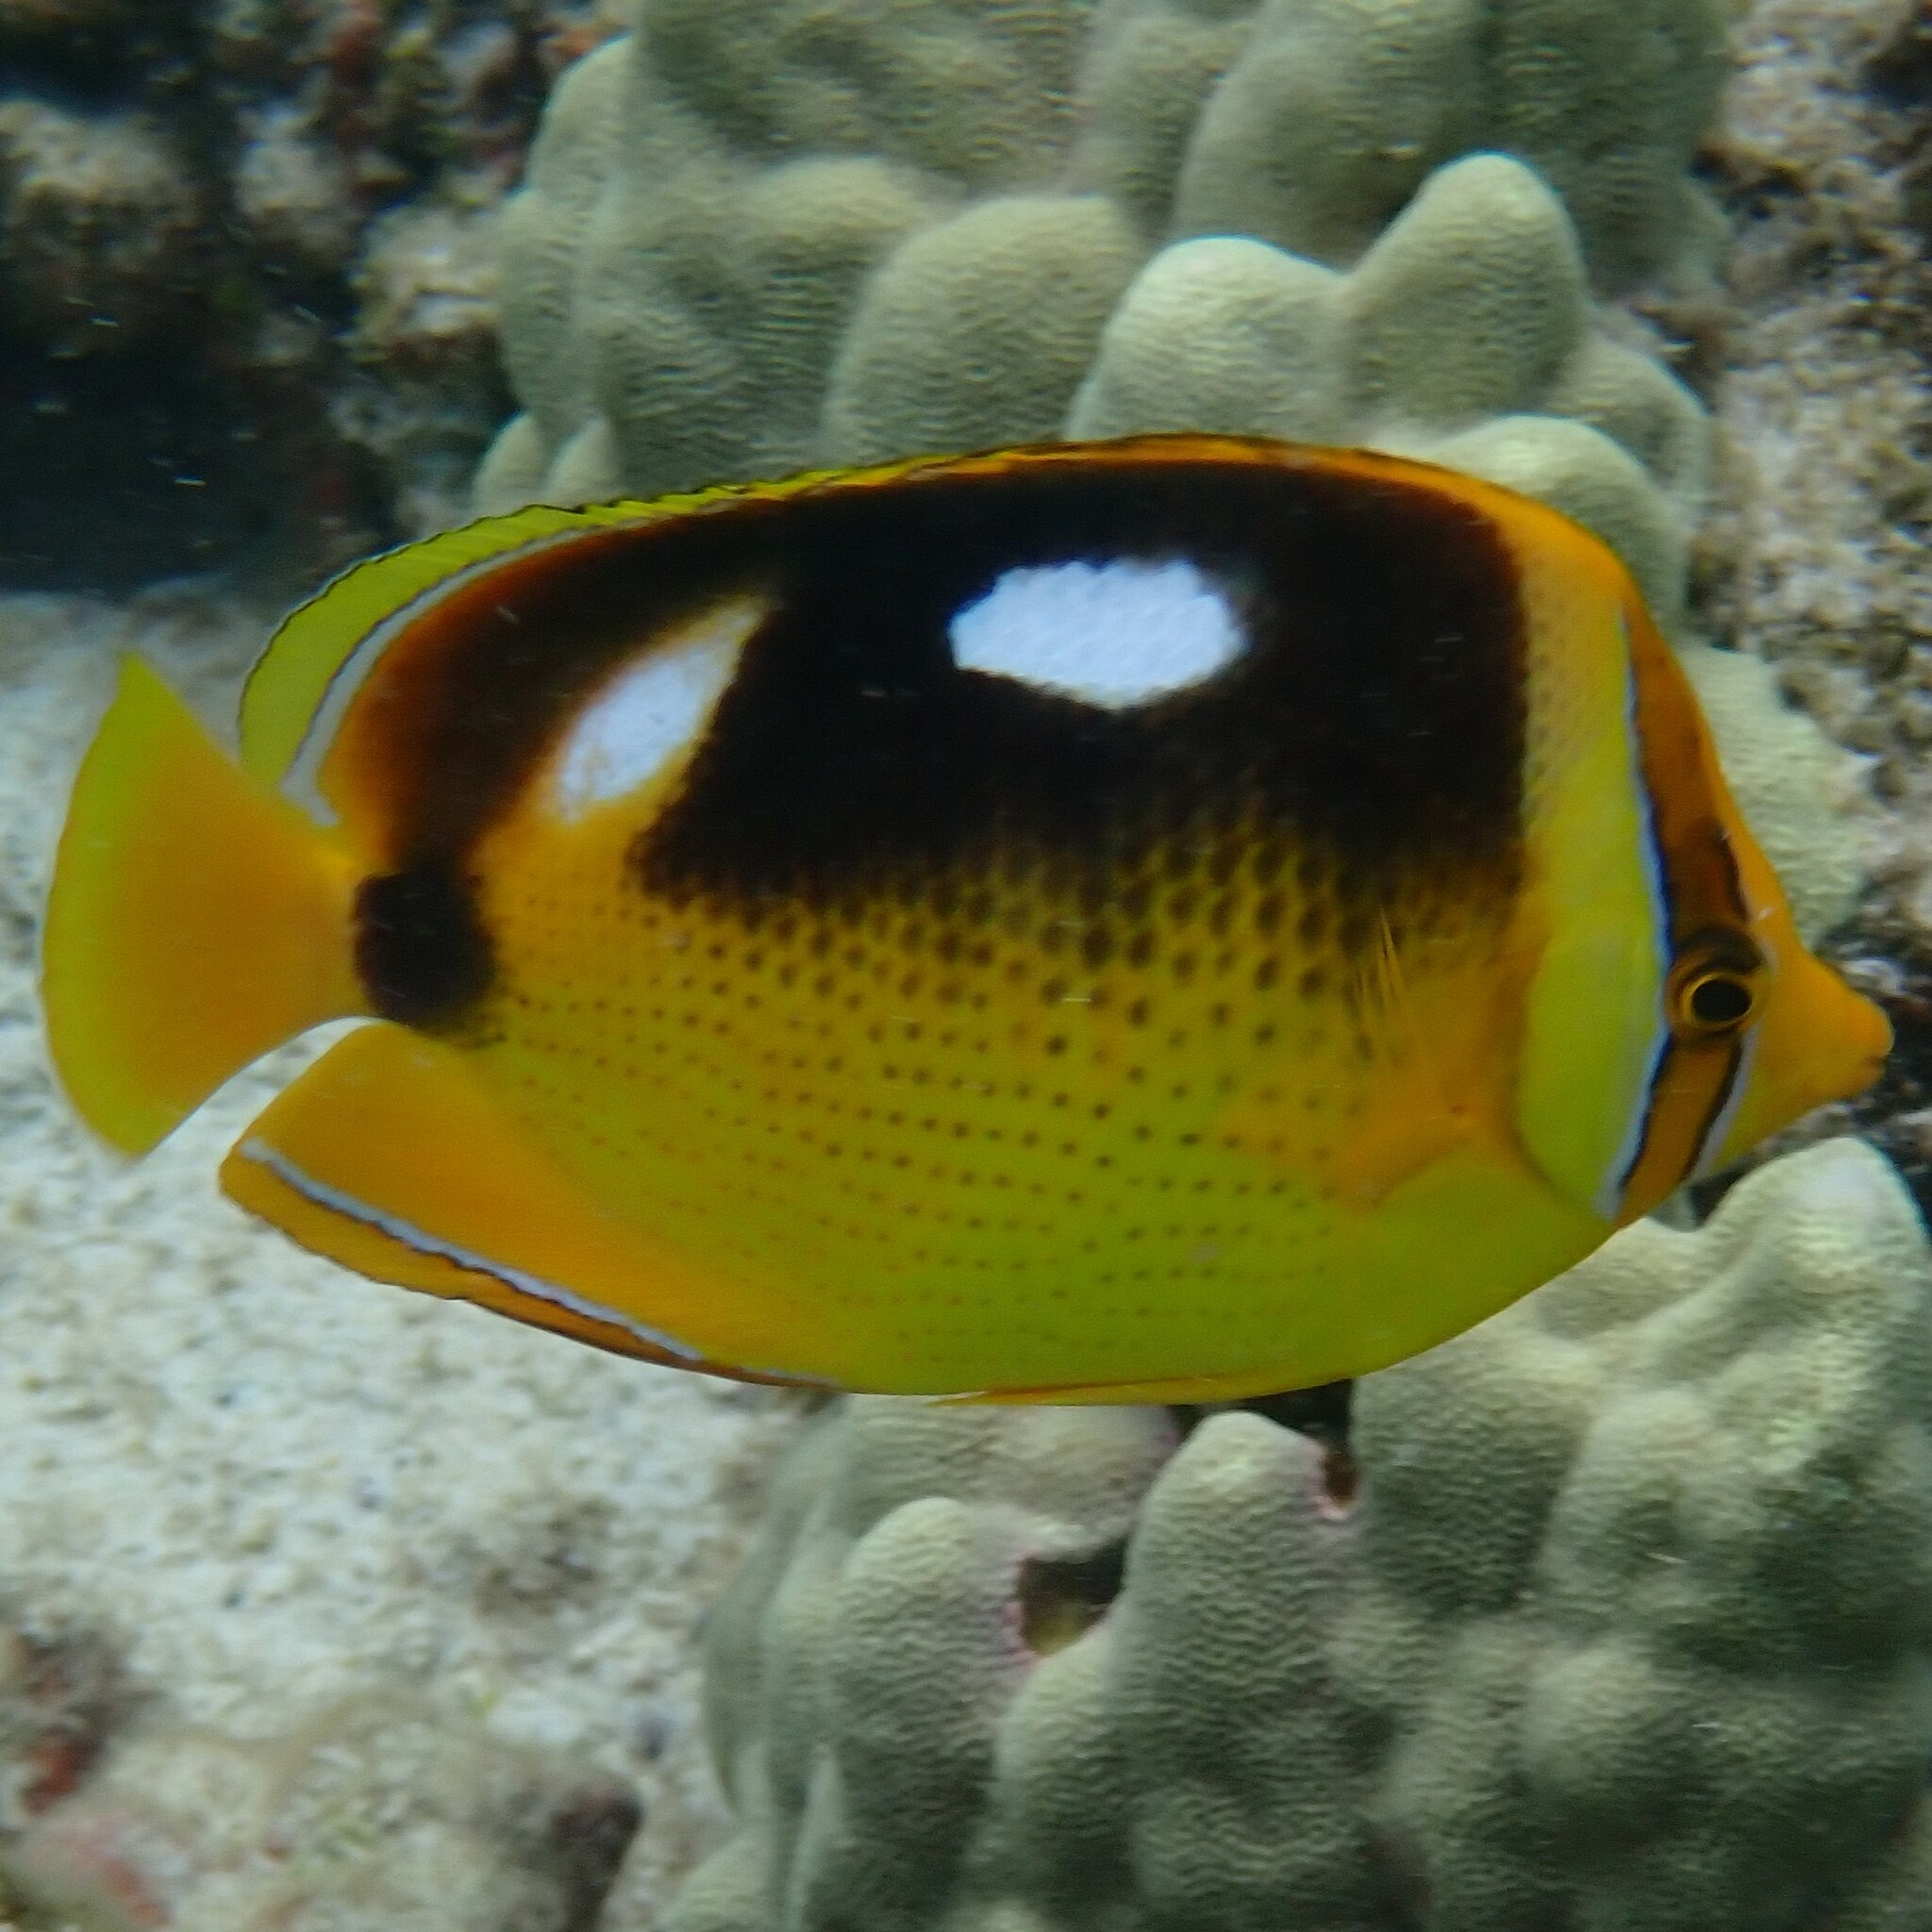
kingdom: Animalia
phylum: Chordata
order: Perciformes
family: Chaetodontidae
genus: Chaetodon
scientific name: Chaetodon quadrimaculatus
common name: Fourspot butterflyfish
